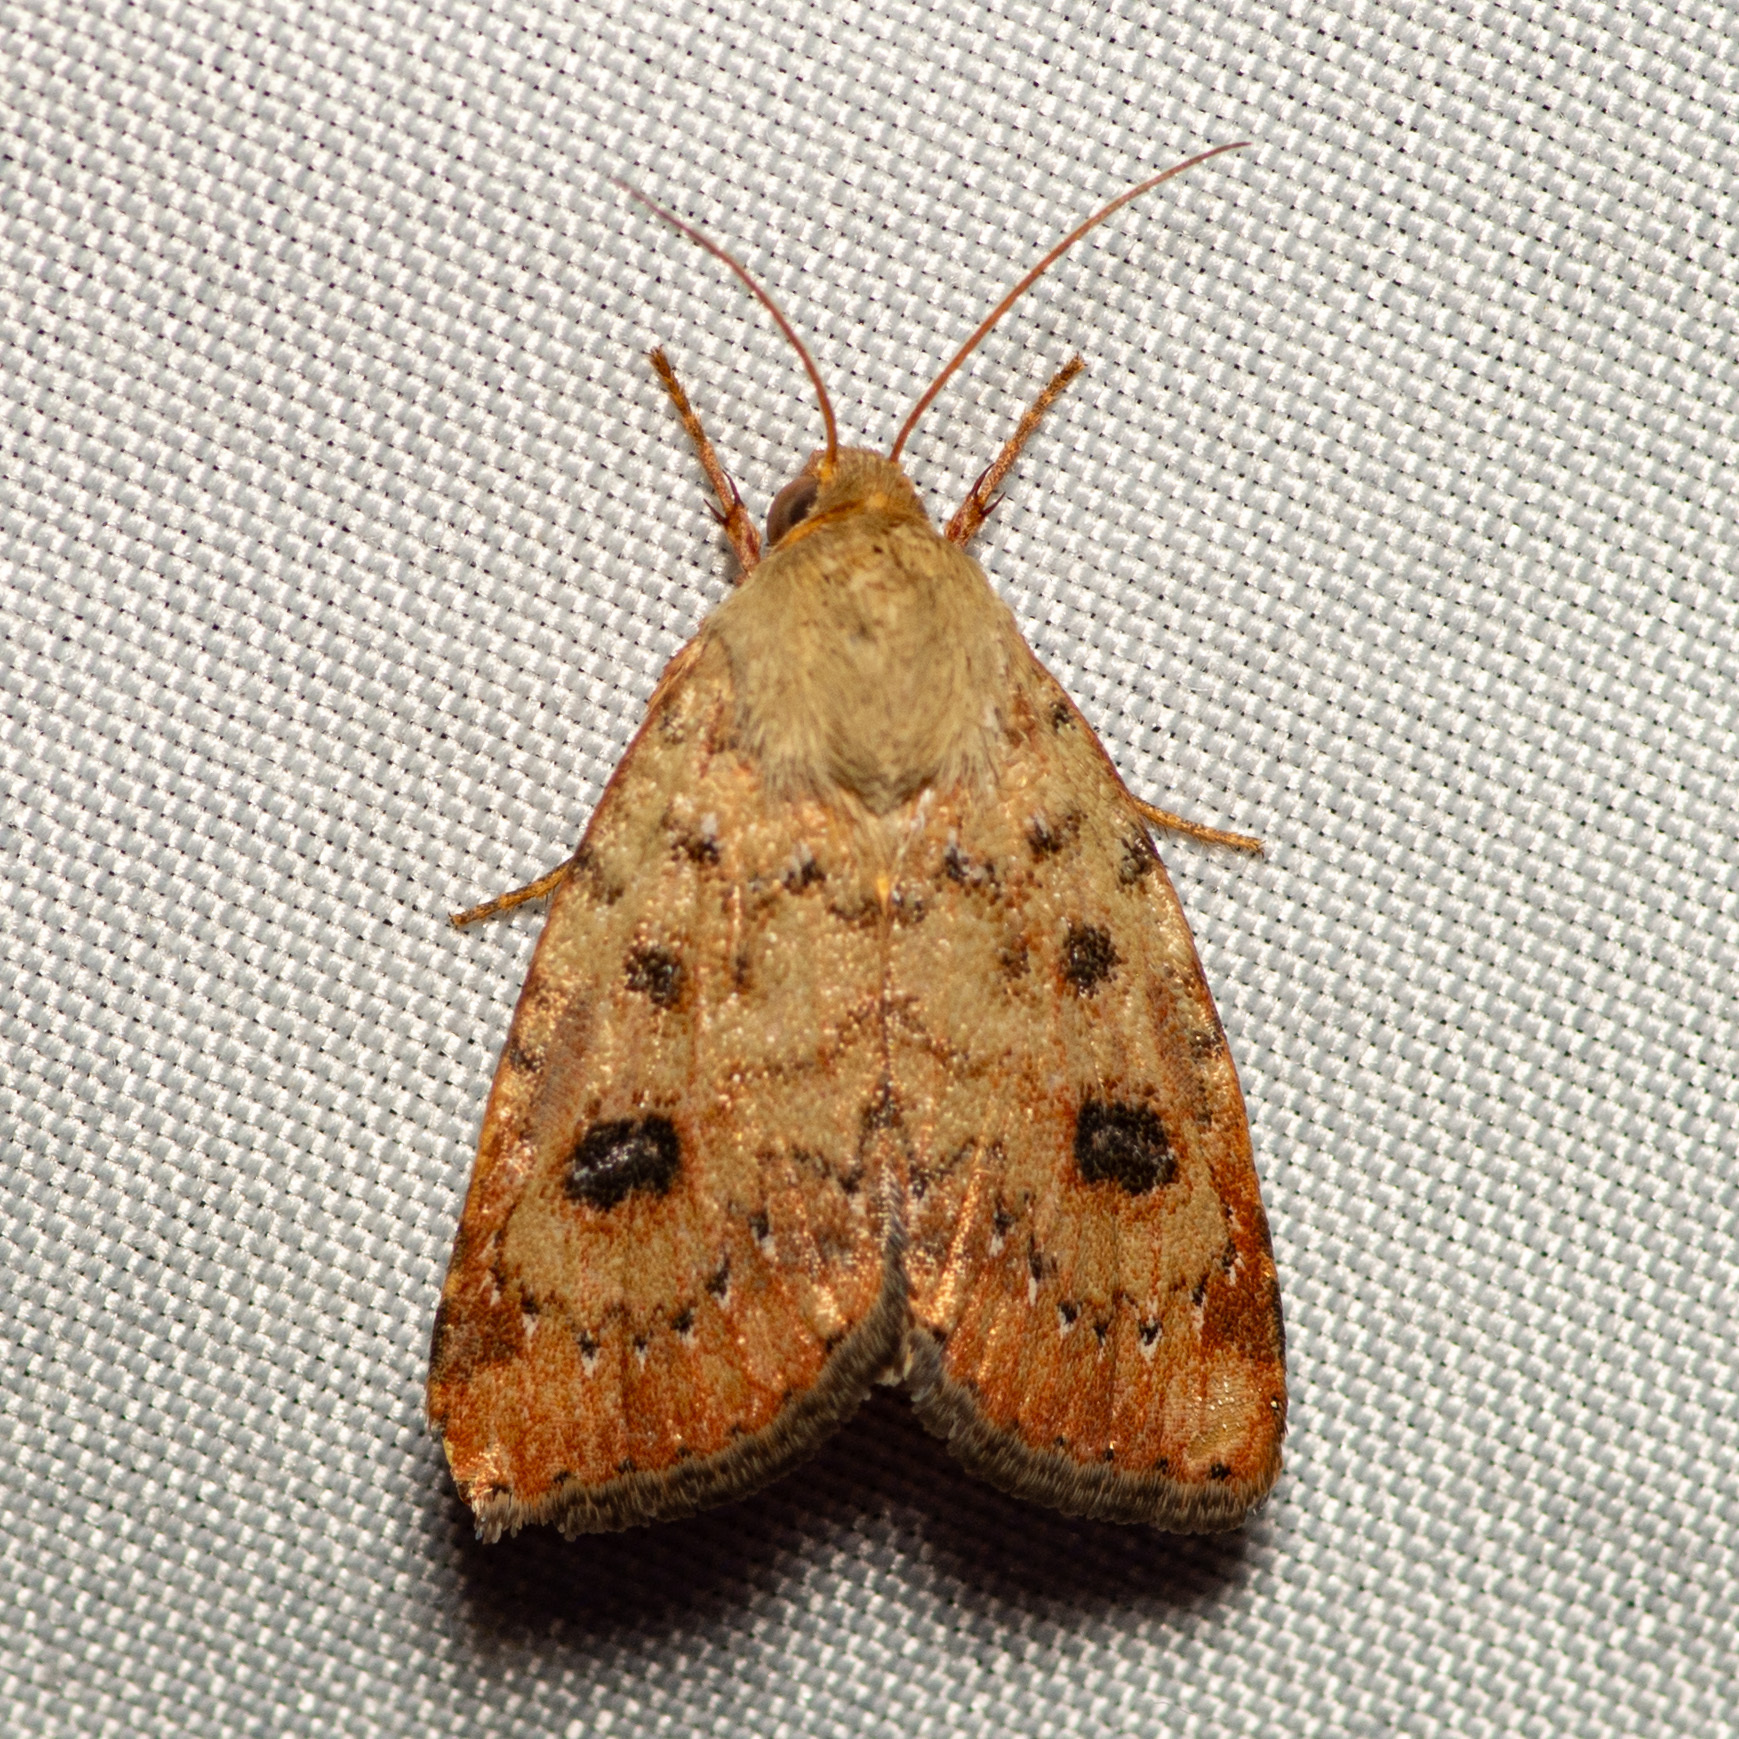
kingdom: Animalia
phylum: Arthropoda
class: Insecta
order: Lepidoptera
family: Noctuidae
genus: Heliocheilus
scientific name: Heliocheilus lupata
